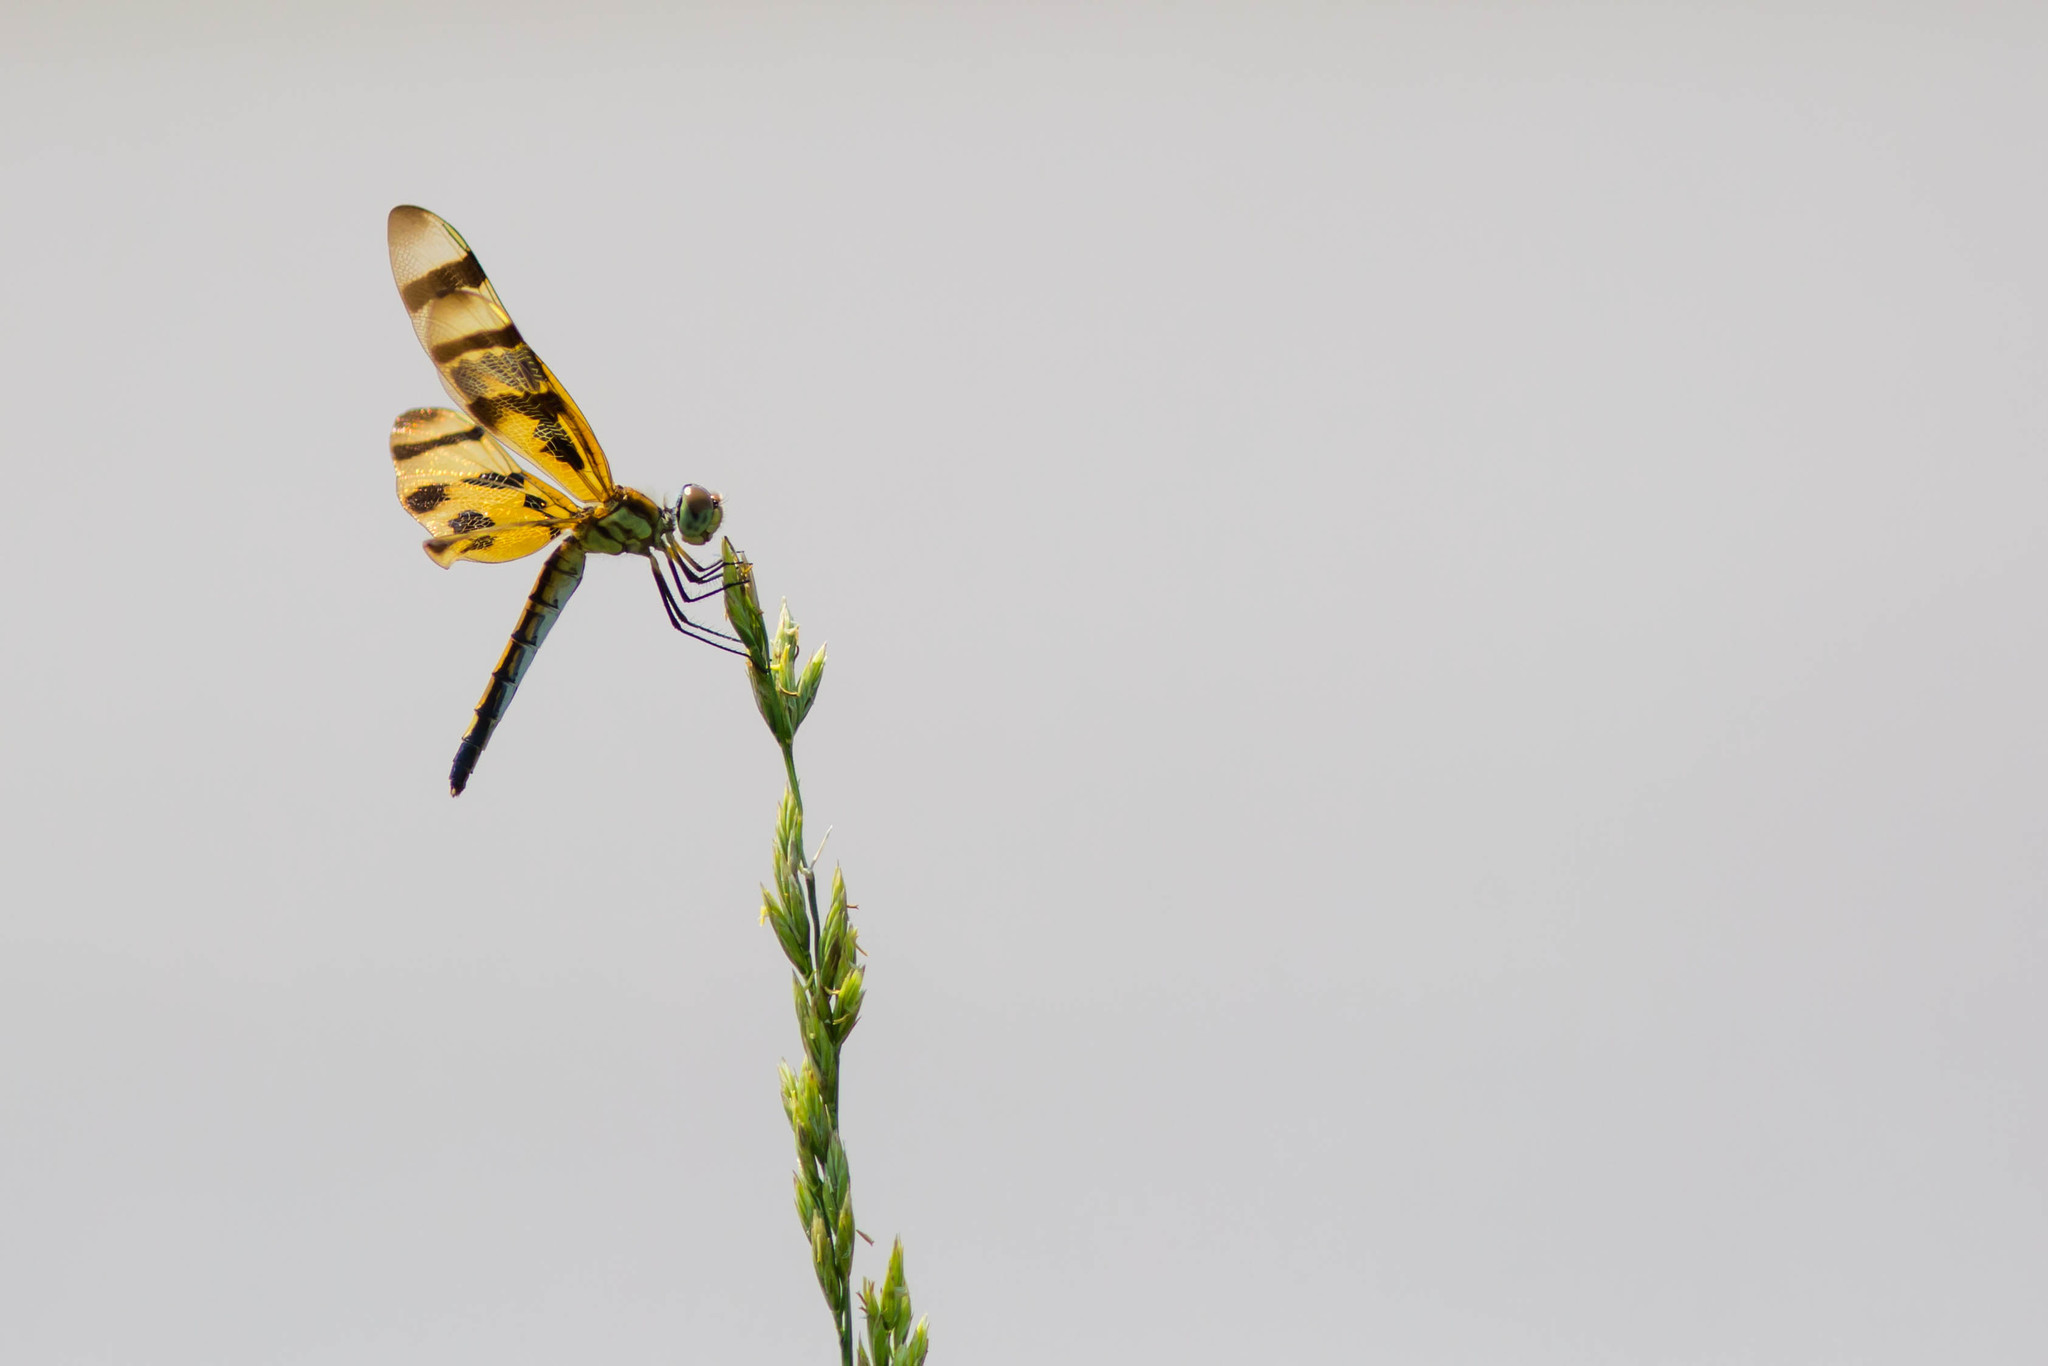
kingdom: Animalia
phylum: Arthropoda
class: Insecta
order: Odonata
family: Libellulidae
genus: Celithemis
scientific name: Celithemis eponina
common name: Halloween pennant
